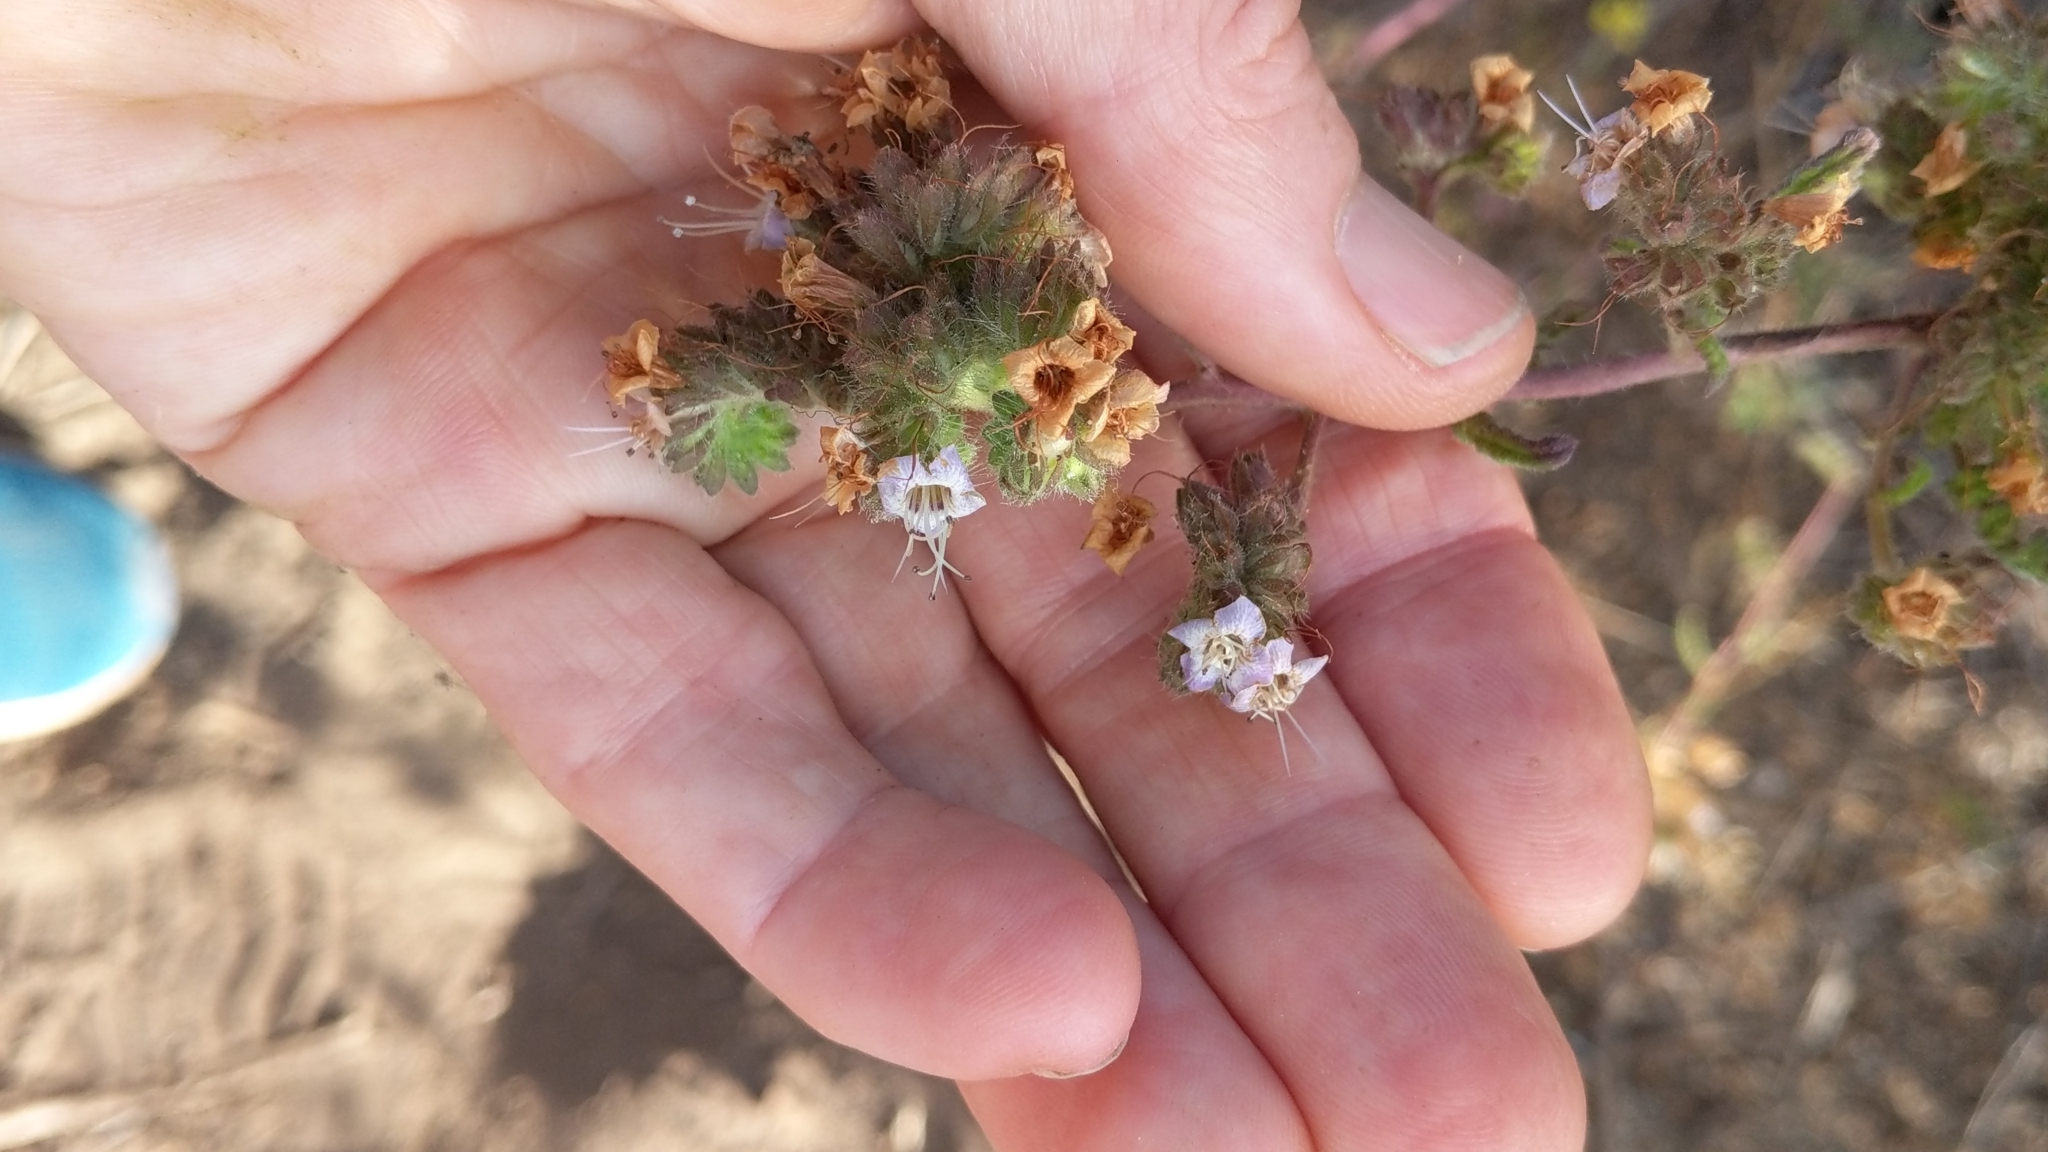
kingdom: Plantae
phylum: Tracheophyta
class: Magnoliopsida
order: Boraginales
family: Hydrophyllaceae
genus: Phacelia
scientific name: Phacelia ramosissima
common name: Branching phacelia
